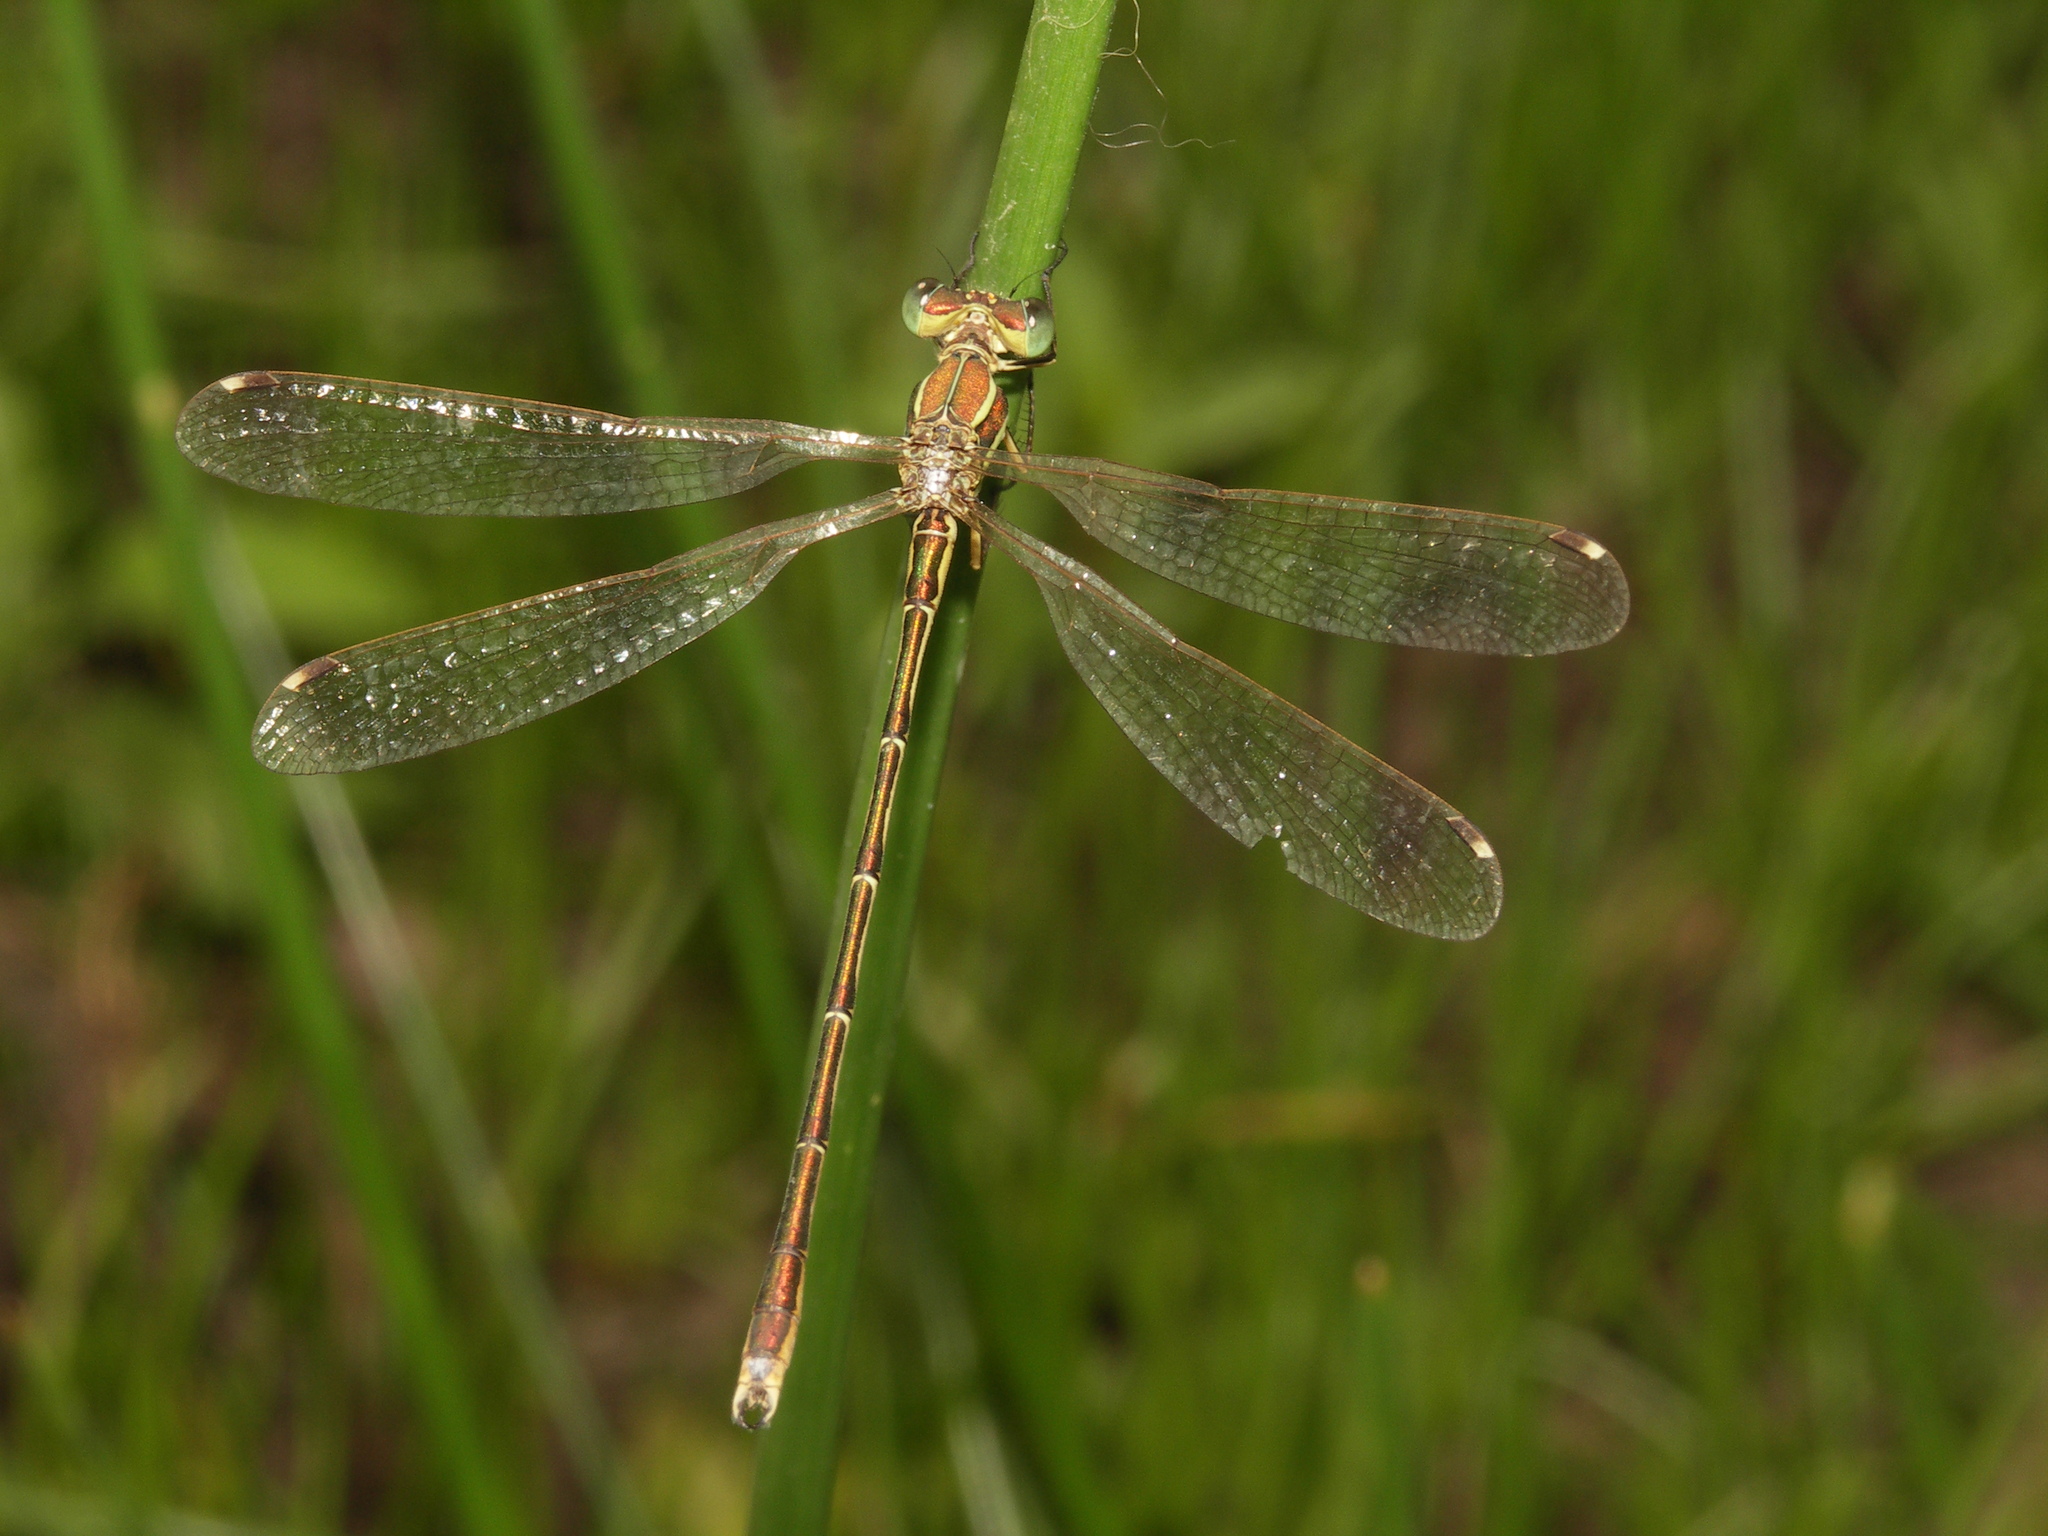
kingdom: Animalia
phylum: Arthropoda
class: Insecta
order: Odonata
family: Lestidae
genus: Lestes
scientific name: Lestes barbarus
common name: Migrant spreadwing
